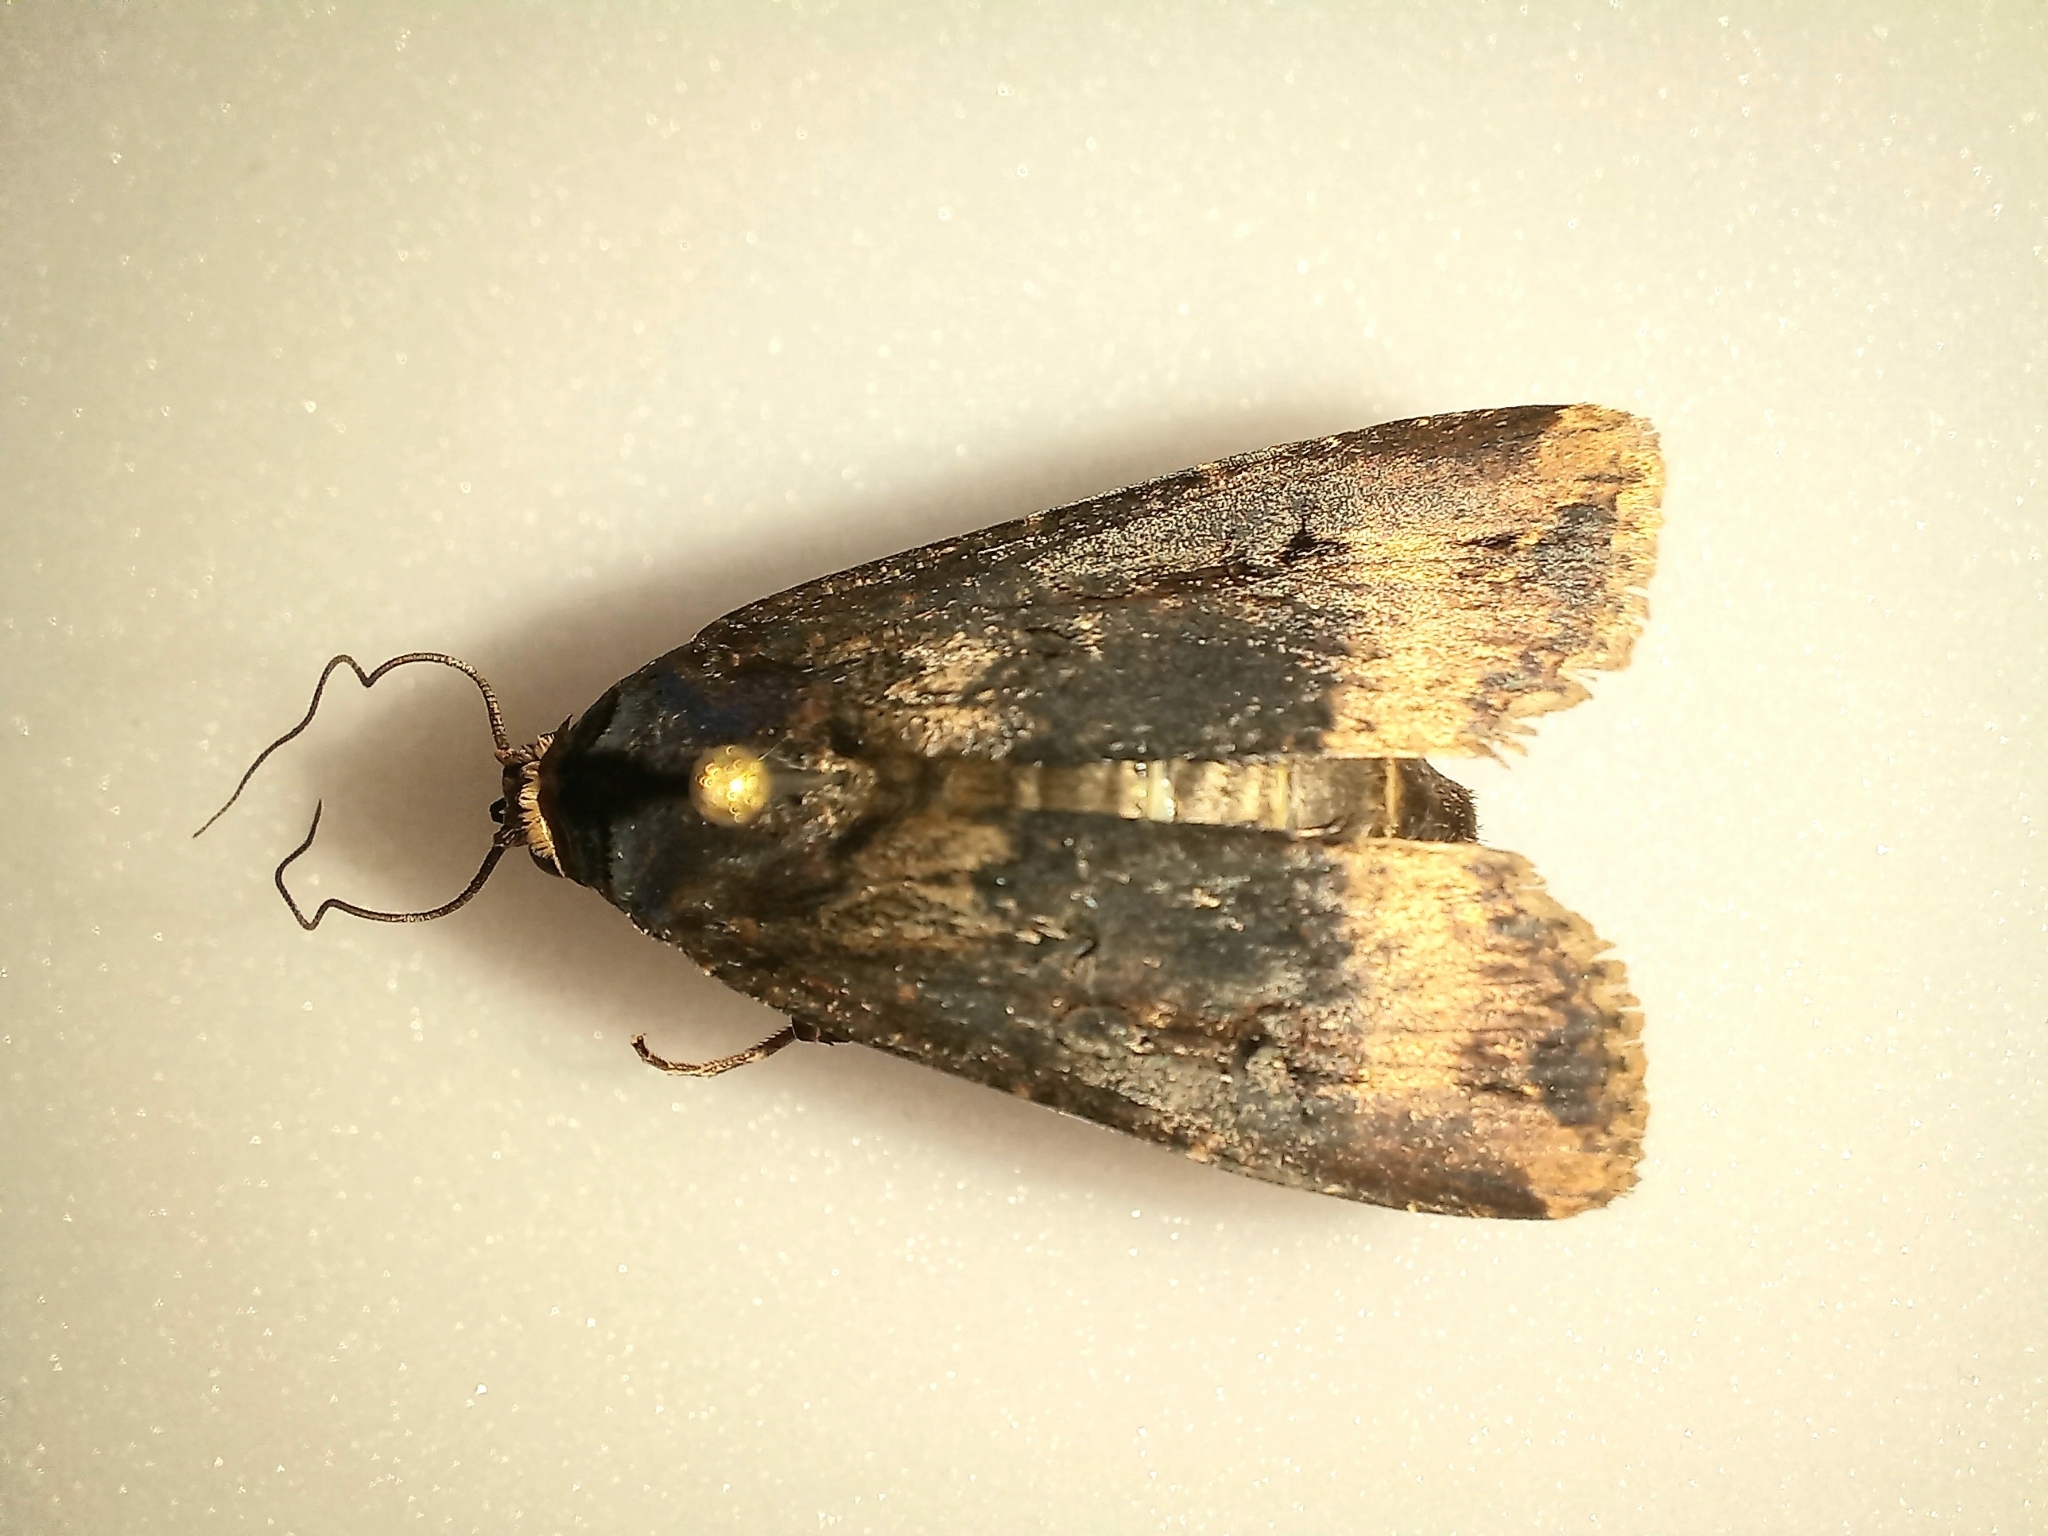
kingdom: Animalia
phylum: Arthropoda
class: Insecta
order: Lepidoptera
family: Noctuidae
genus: Agrotis
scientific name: Agrotis ipsilon
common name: Dark sword-grass
